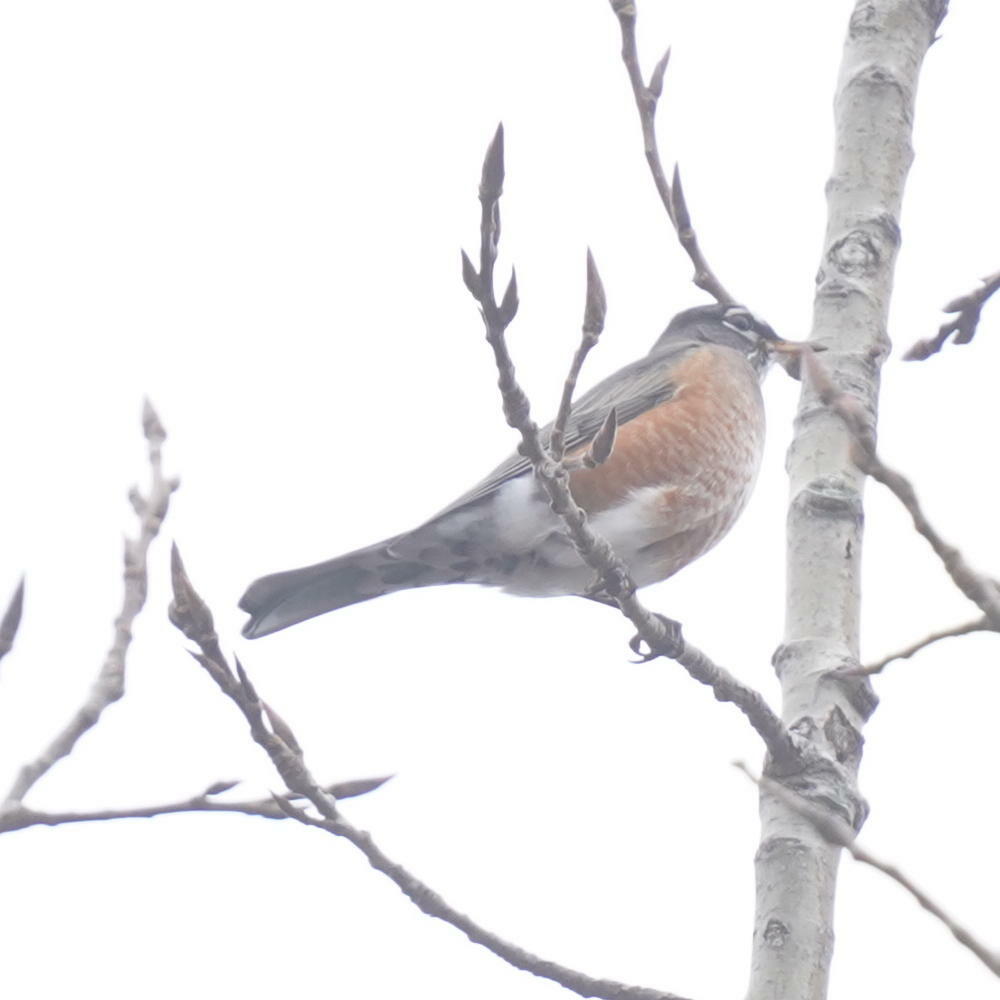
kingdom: Animalia
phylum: Chordata
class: Aves
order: Passeriformes
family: Turdidae
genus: Turdus
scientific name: Turdus migratorius
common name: American robin
